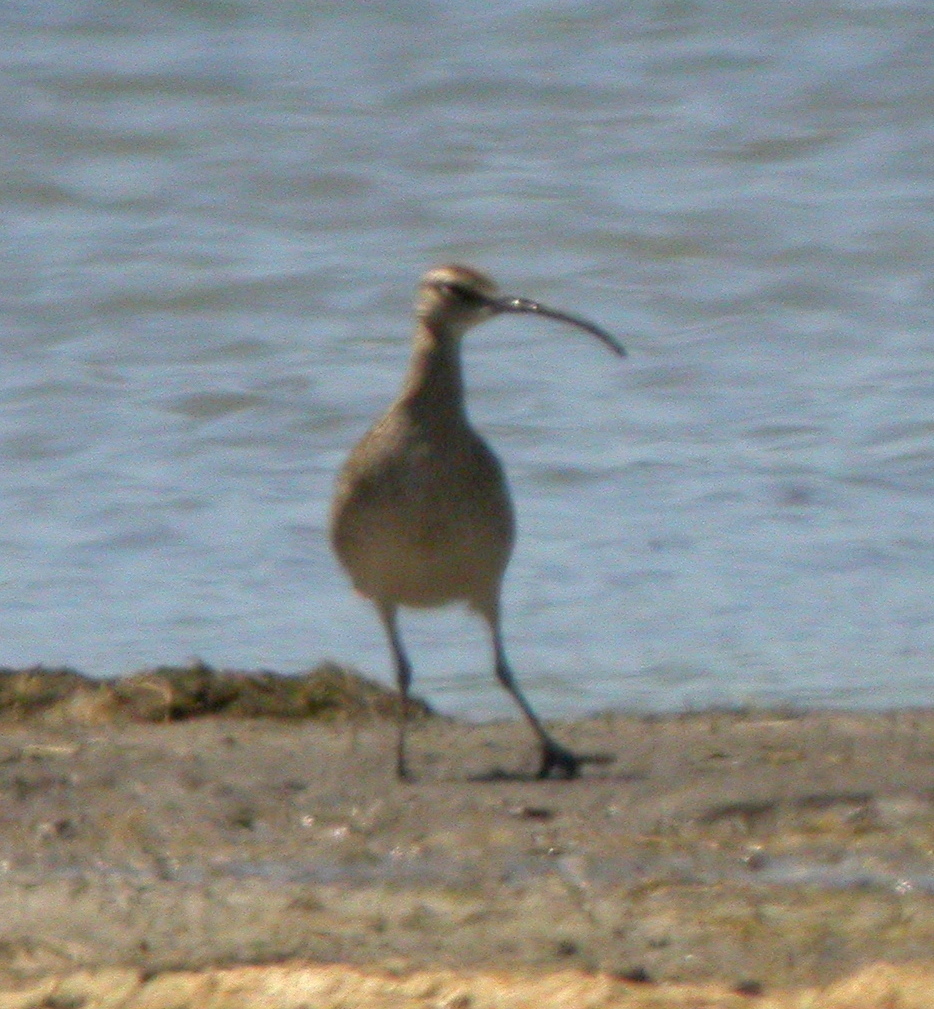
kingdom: Animalia
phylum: Chordata
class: Aves
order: Charadriiformes
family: Scolopacidae
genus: Numenius
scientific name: Numenius phaeopus
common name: Whimbrel
